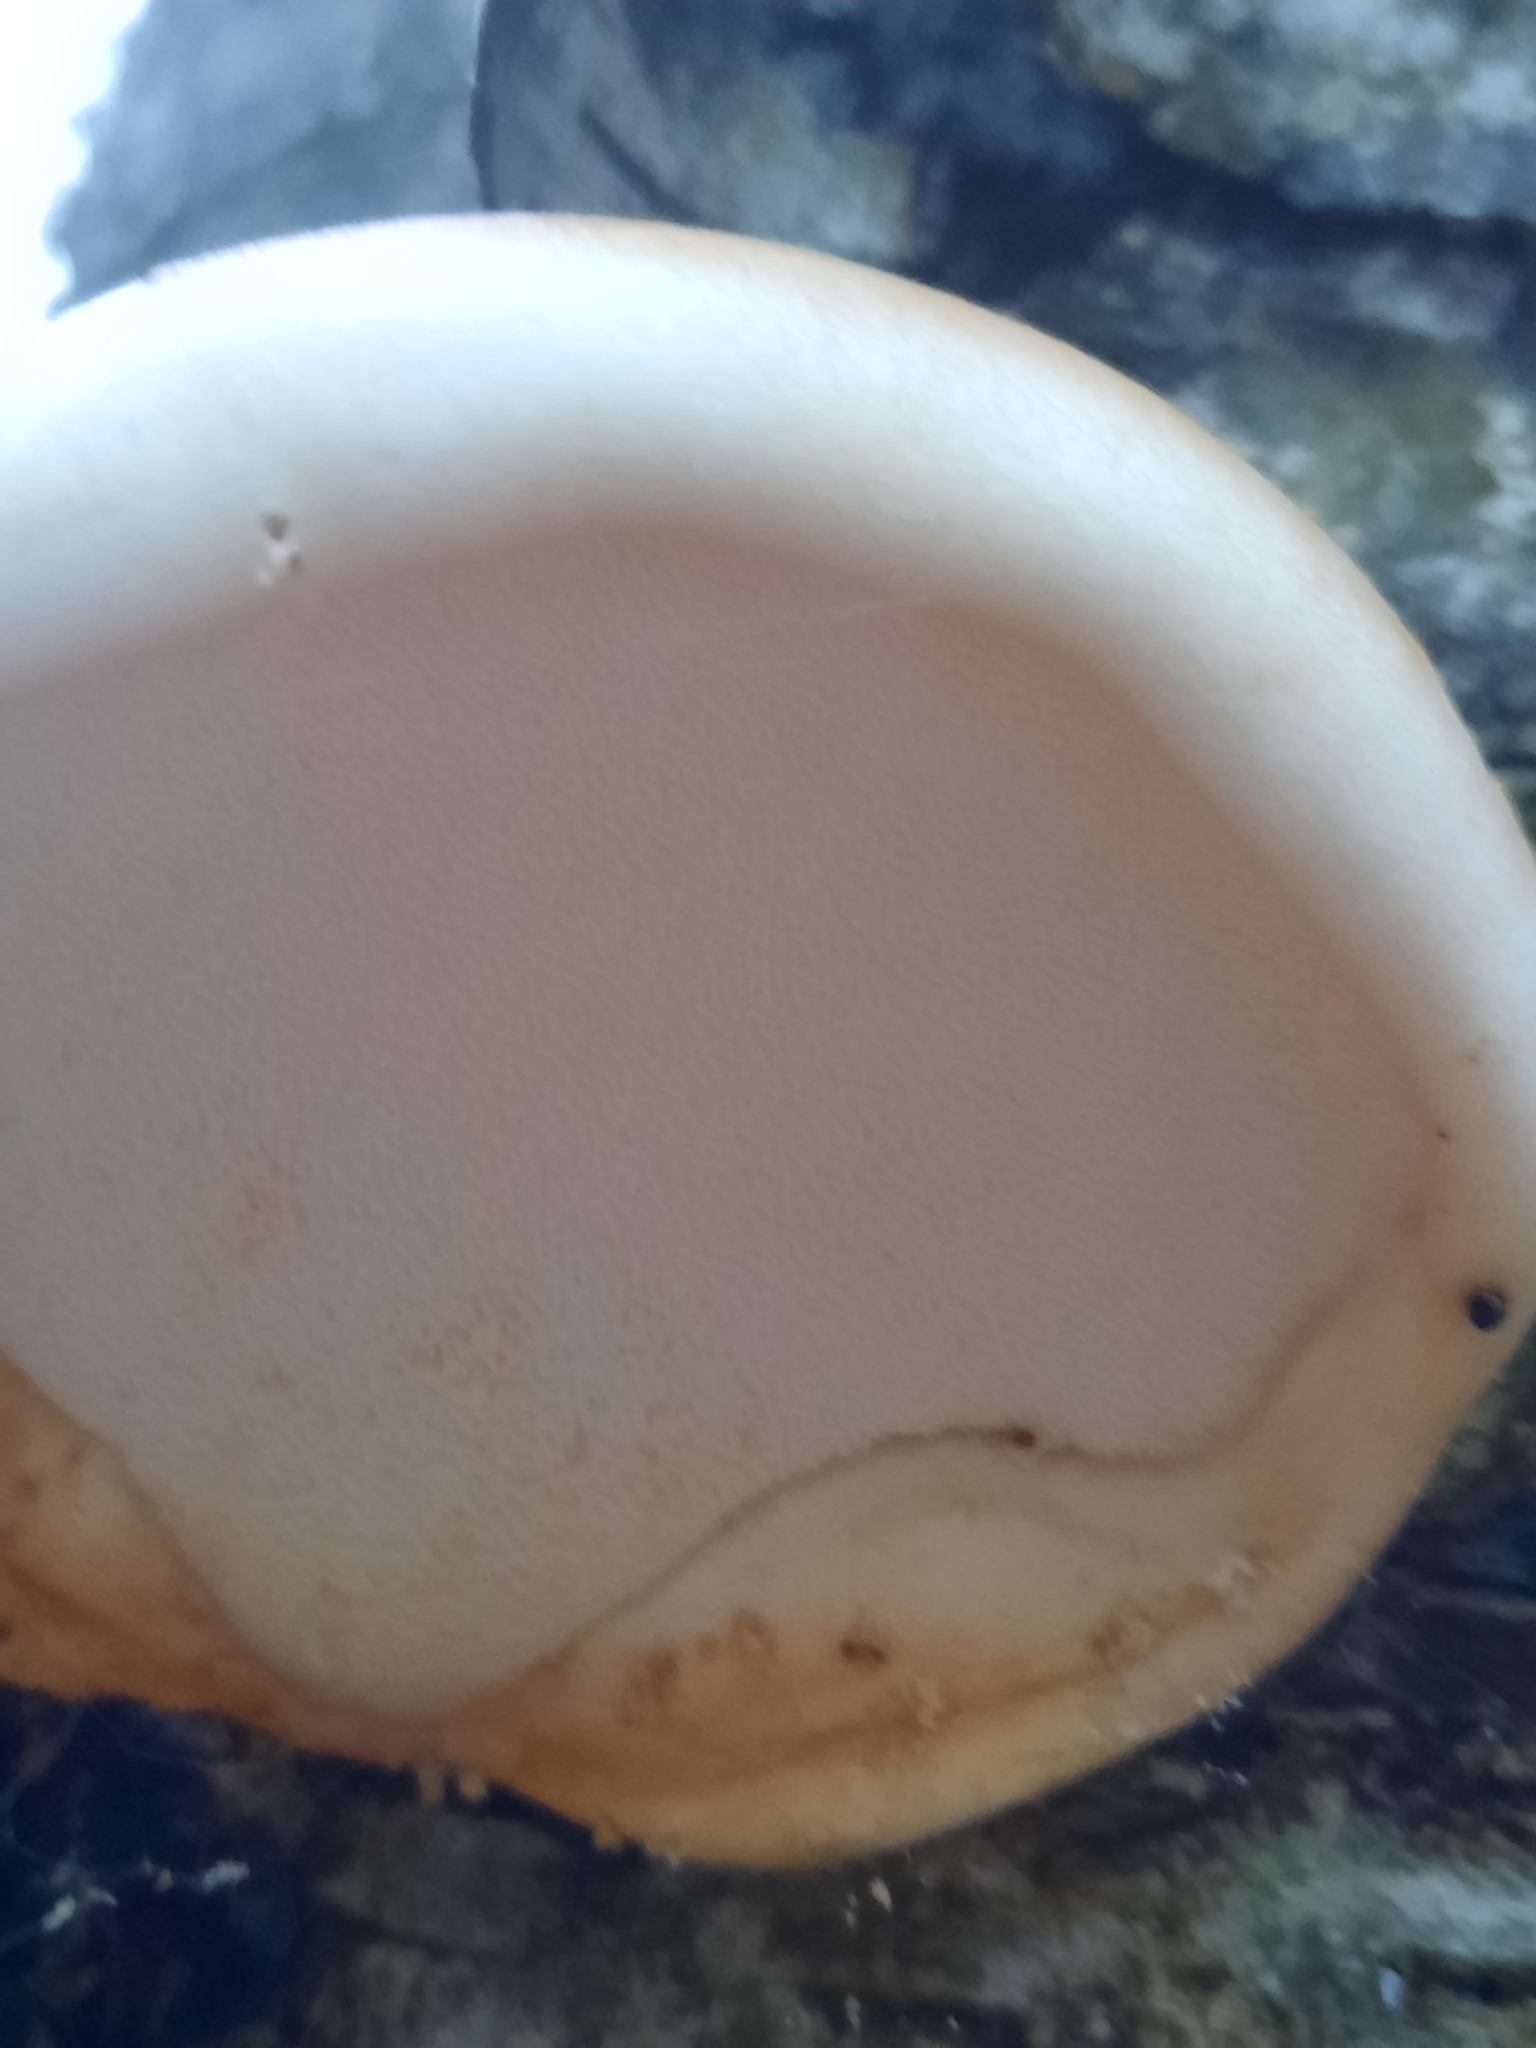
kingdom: Fungi
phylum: Basidiomycota
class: Agaricomycetes
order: Polyporales
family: Fomitopsidaceae
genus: Fomitopsis
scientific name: Fomitopsis betulina
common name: Birch polypore
